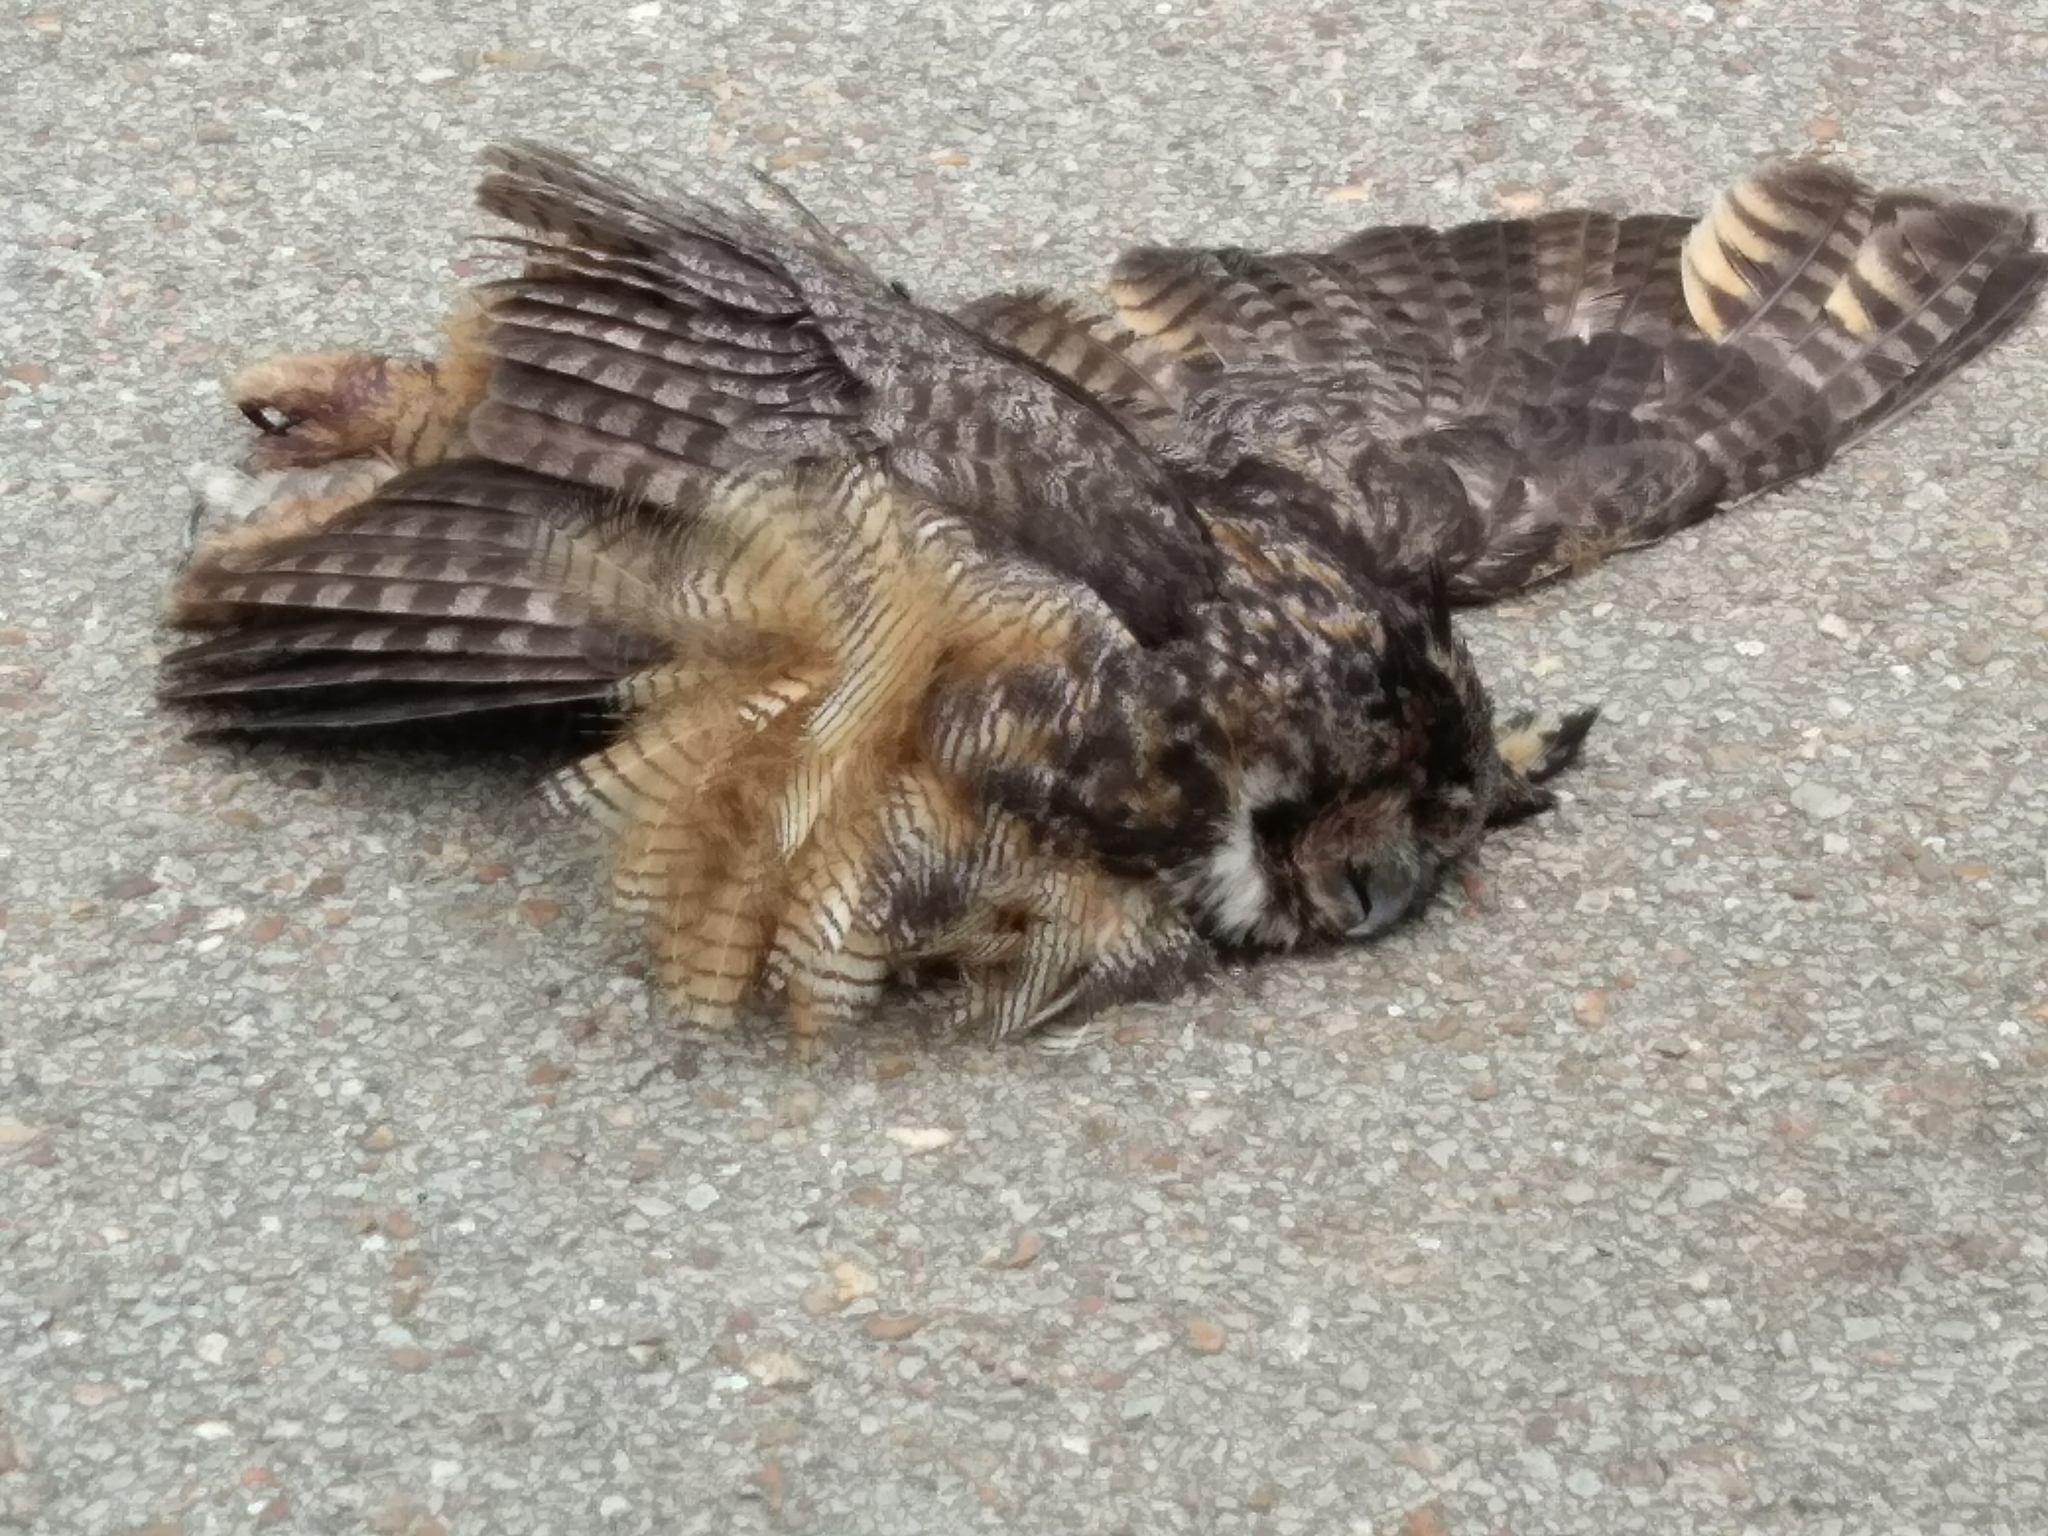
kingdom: Animalia
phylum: Chordata
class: Aves
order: Strigiformes
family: Strigidae
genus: Bubo
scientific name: Bubo virginianus
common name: Great horned owl
